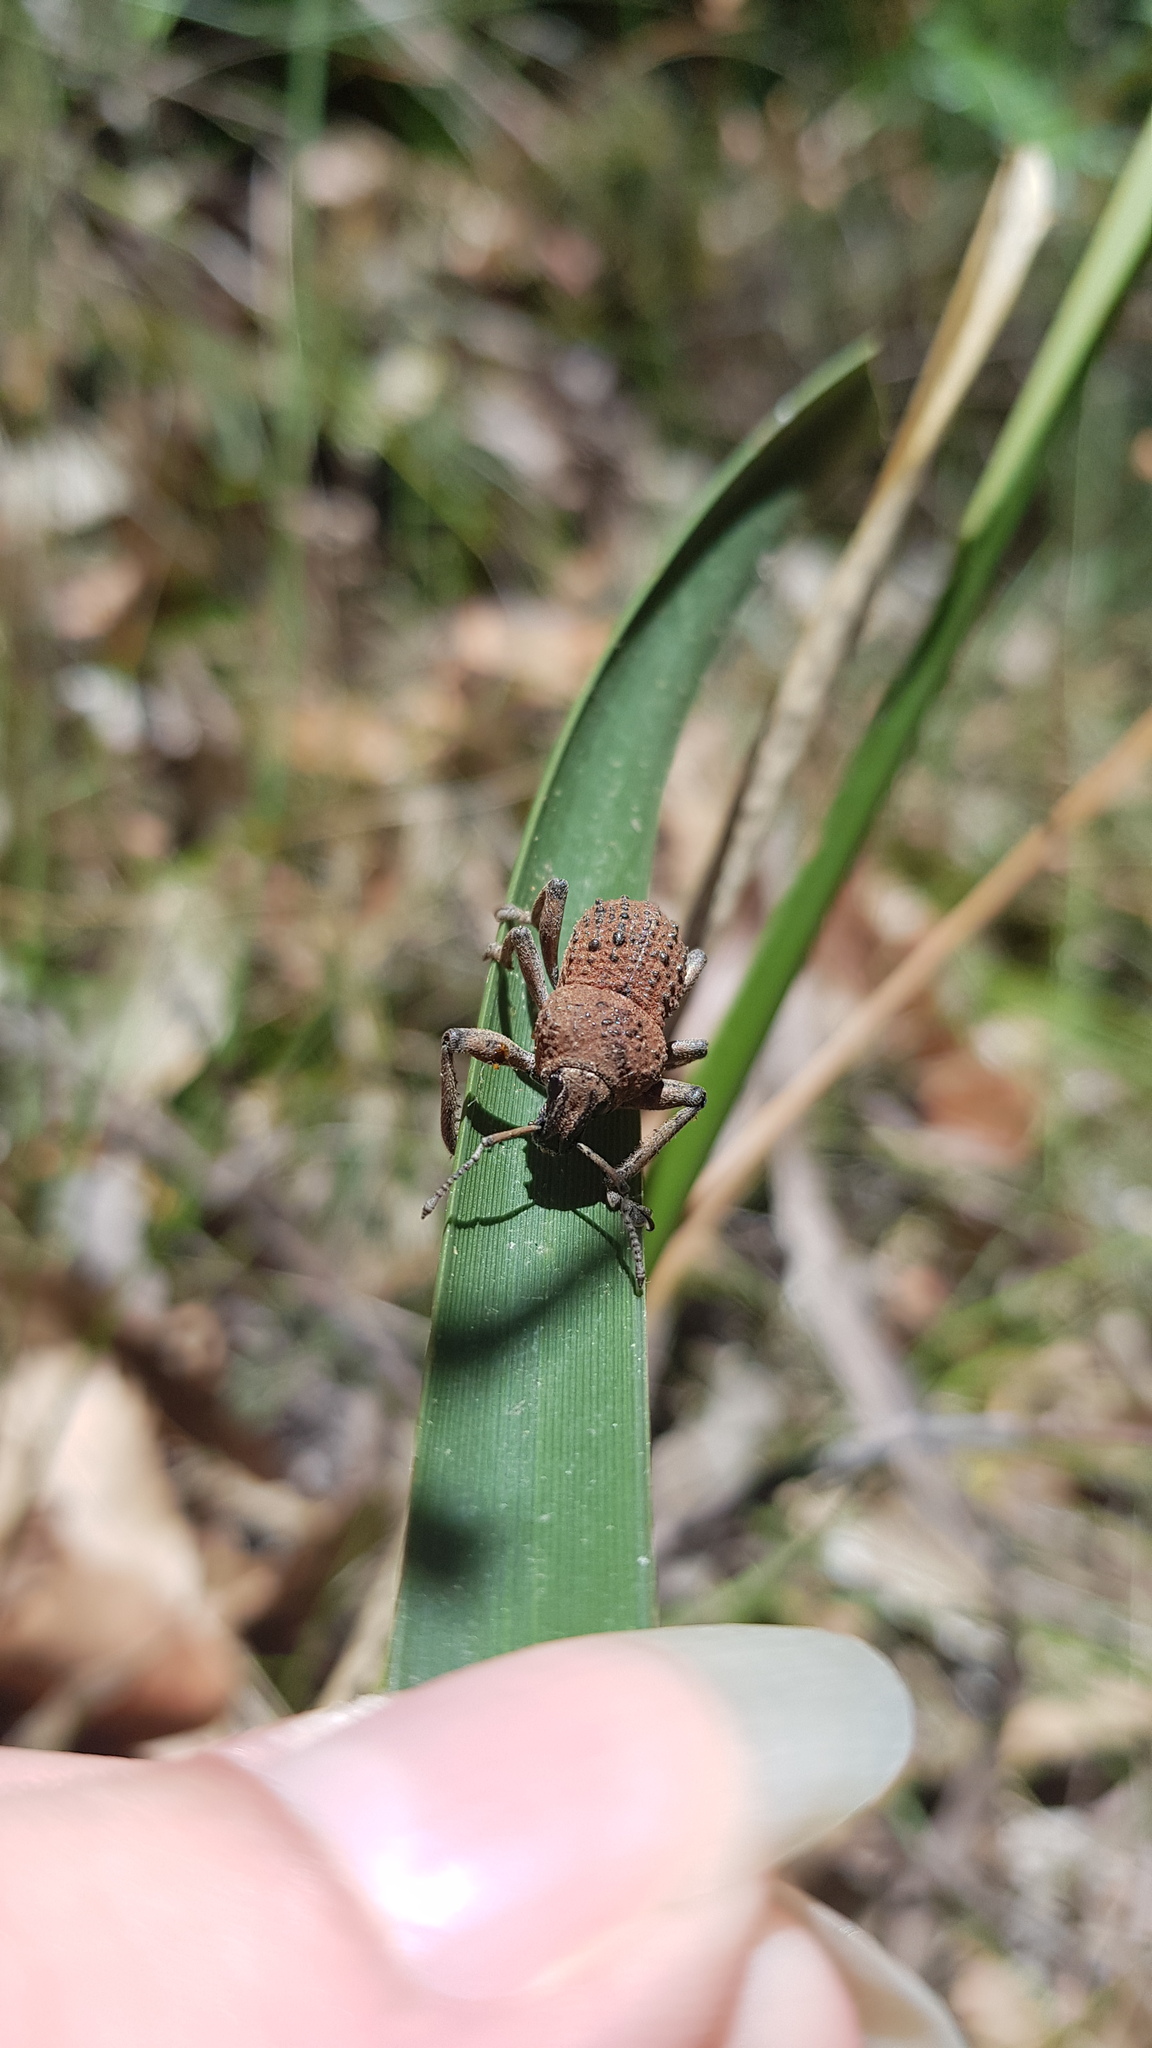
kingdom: Animalia
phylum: Arthropoda
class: Insecta
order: Coleoptera
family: Curculionidae
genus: Psapharus
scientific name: Psapharus infaustus
